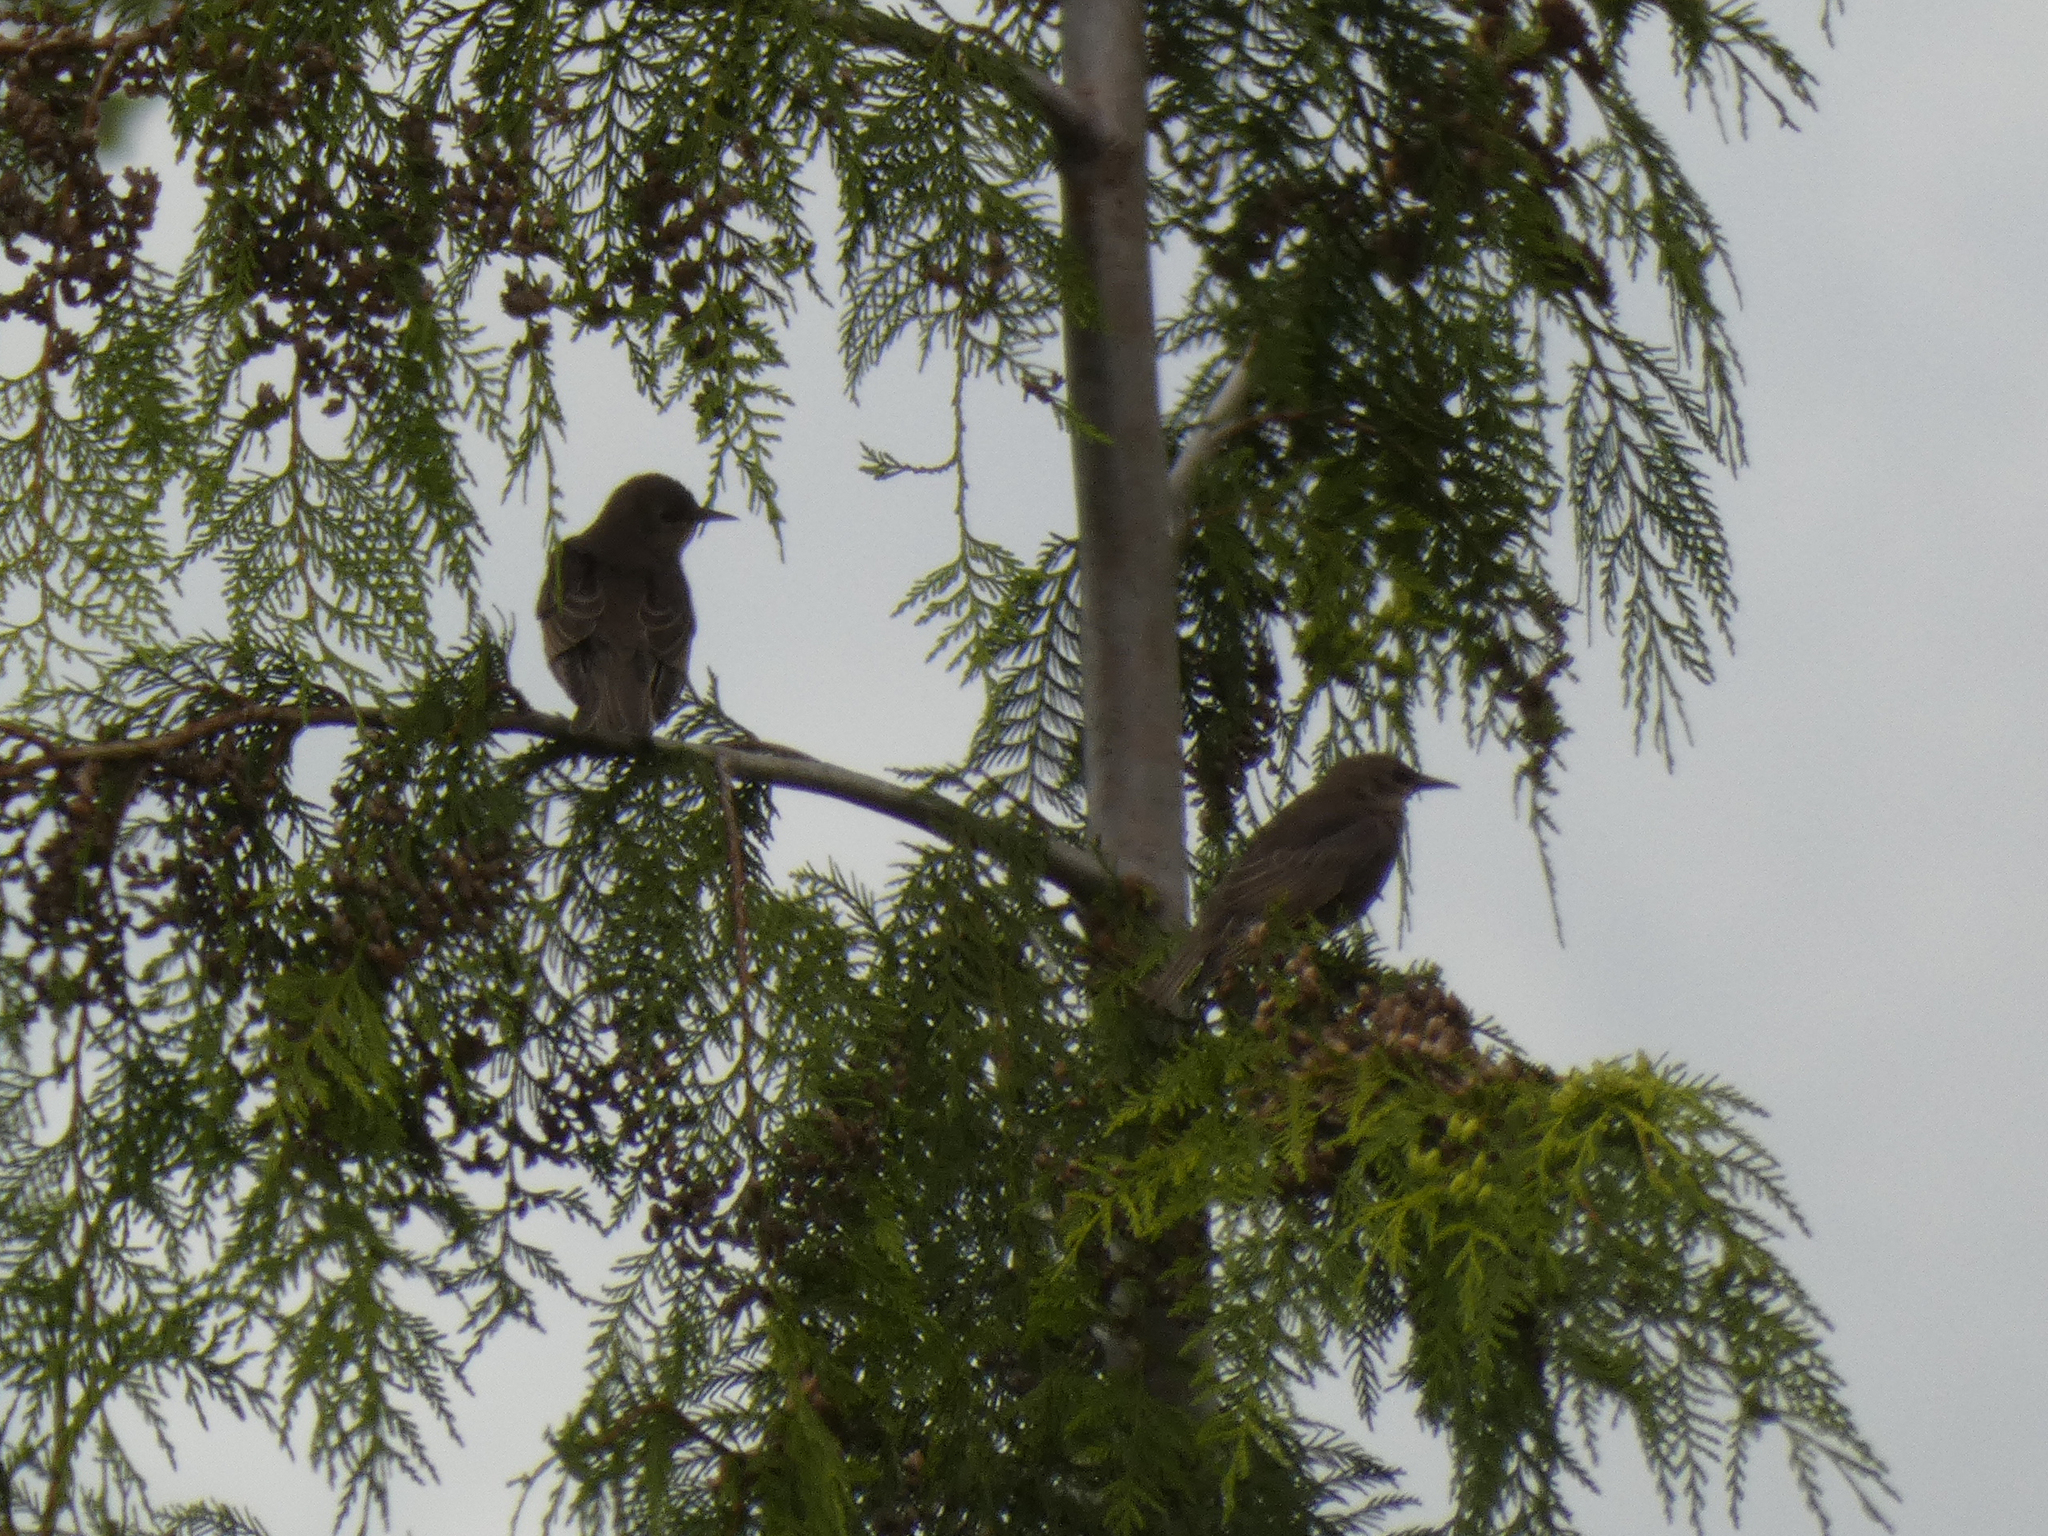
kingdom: Animalia
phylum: Chordata
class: Aves
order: Passeriformes
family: Sturnidae
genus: Sturnus
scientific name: Sturnus vulgaris
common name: Common starling
